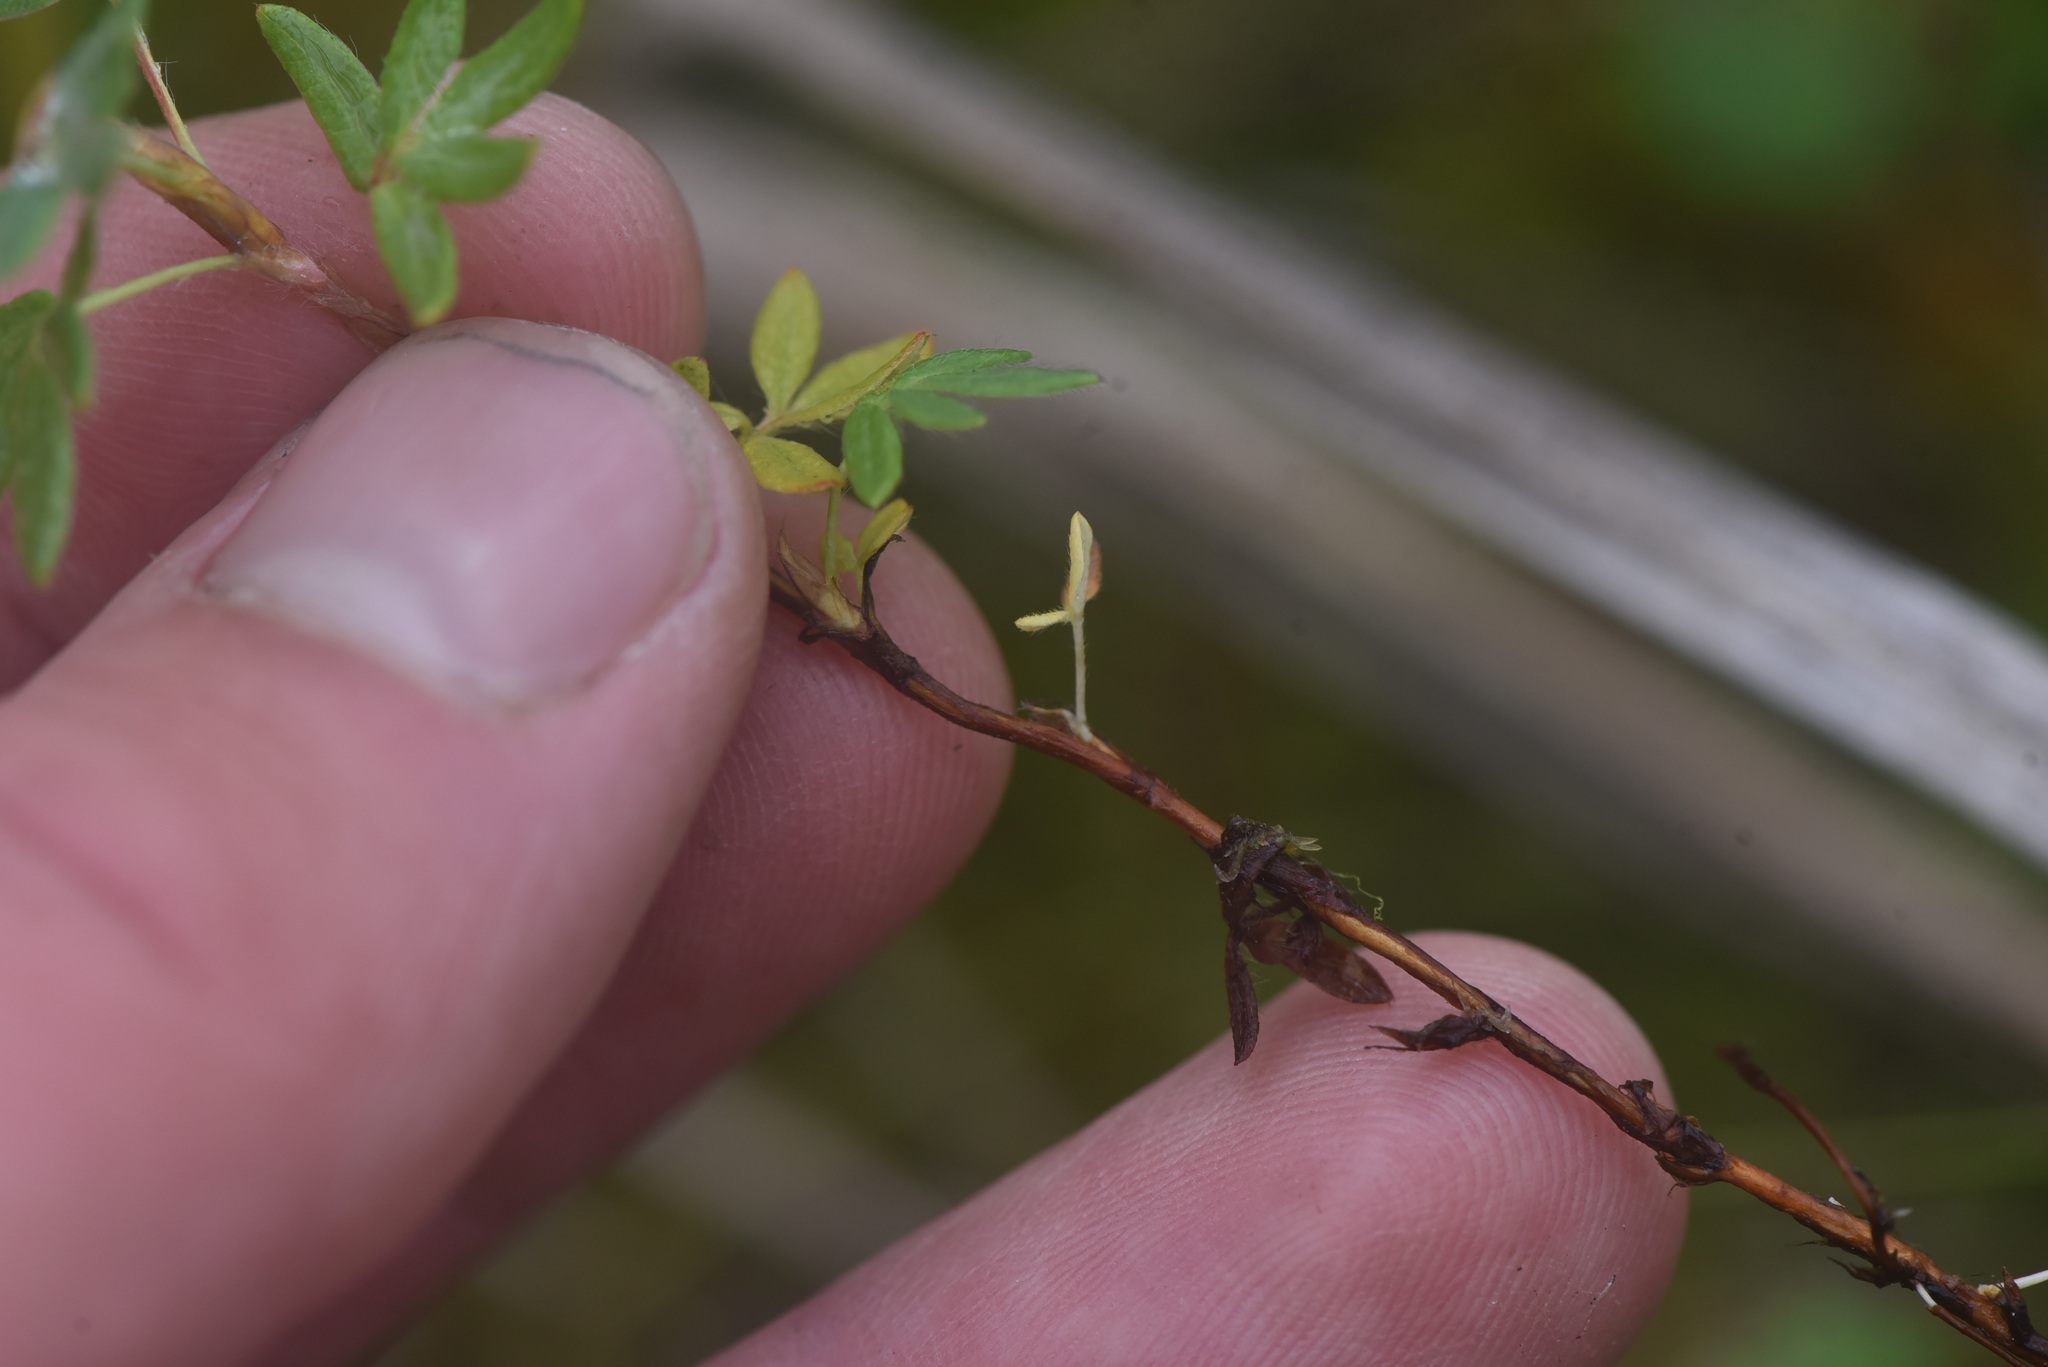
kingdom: Plantae
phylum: Tracheophyta
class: Magnoliopsida
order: Rosales
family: Rosaceae
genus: Dasiphora
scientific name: Dasiphora fruticosa
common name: Shrubby cinquefoil
